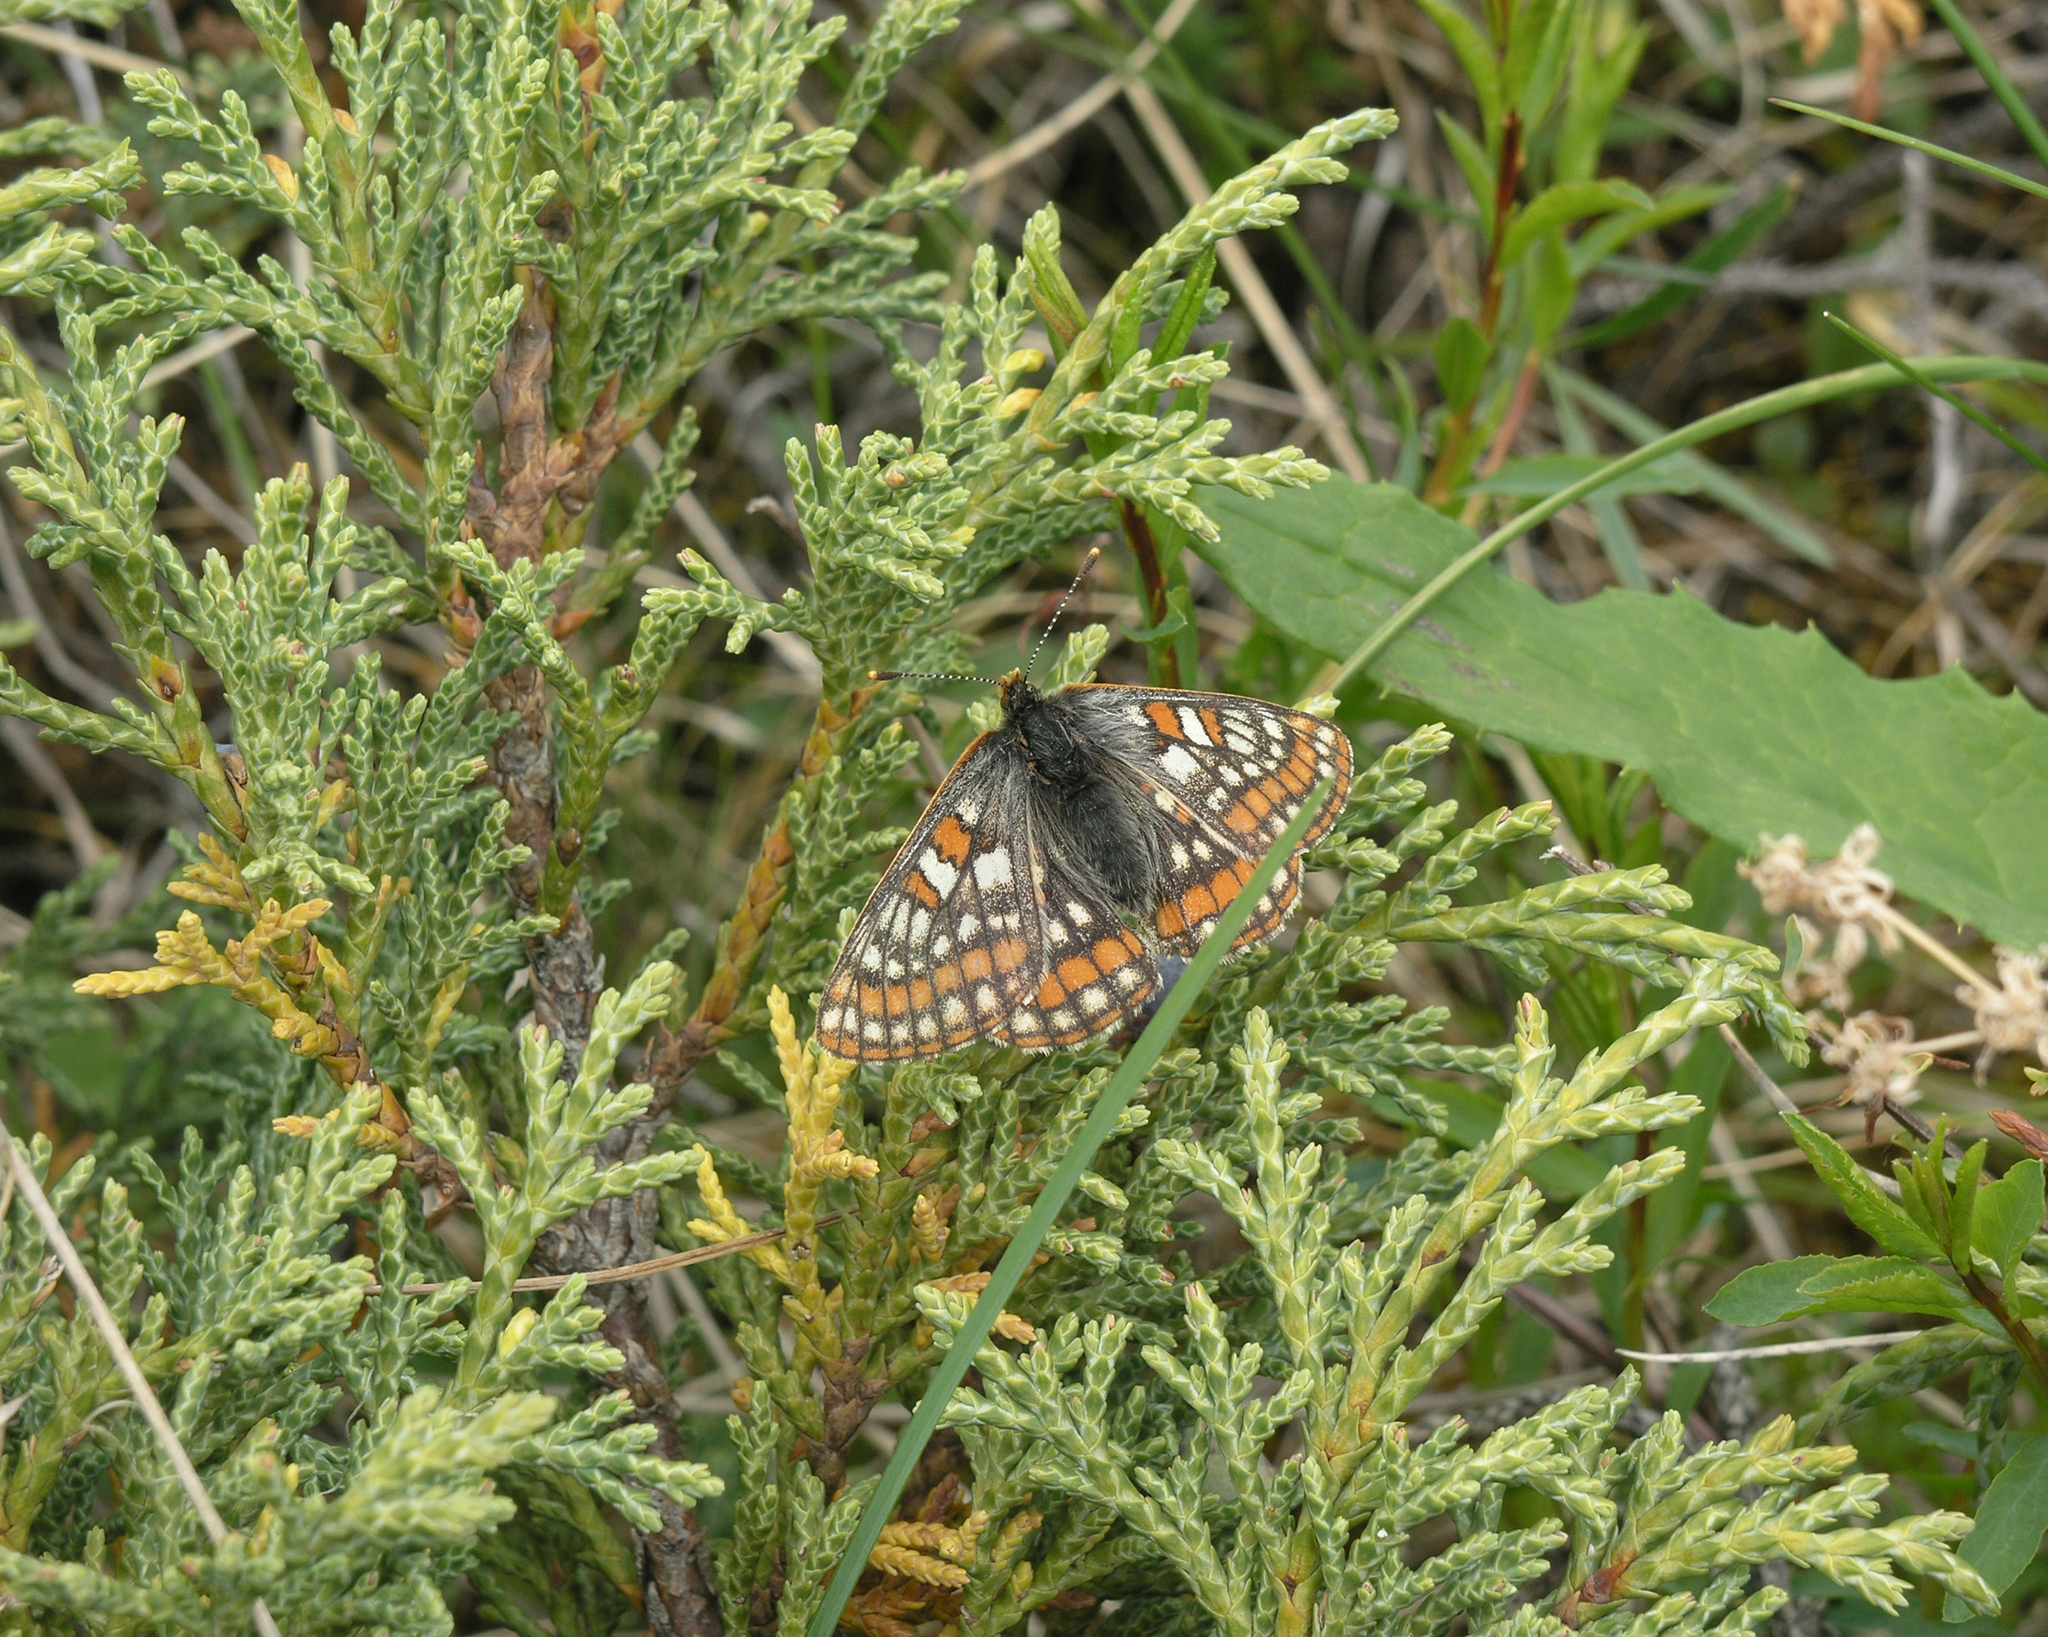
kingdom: Animalia
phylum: Arthropoda
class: Insecta
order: Lepidoptera
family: Nymphalidae
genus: Hypodryas
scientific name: Hypodryas iduna
